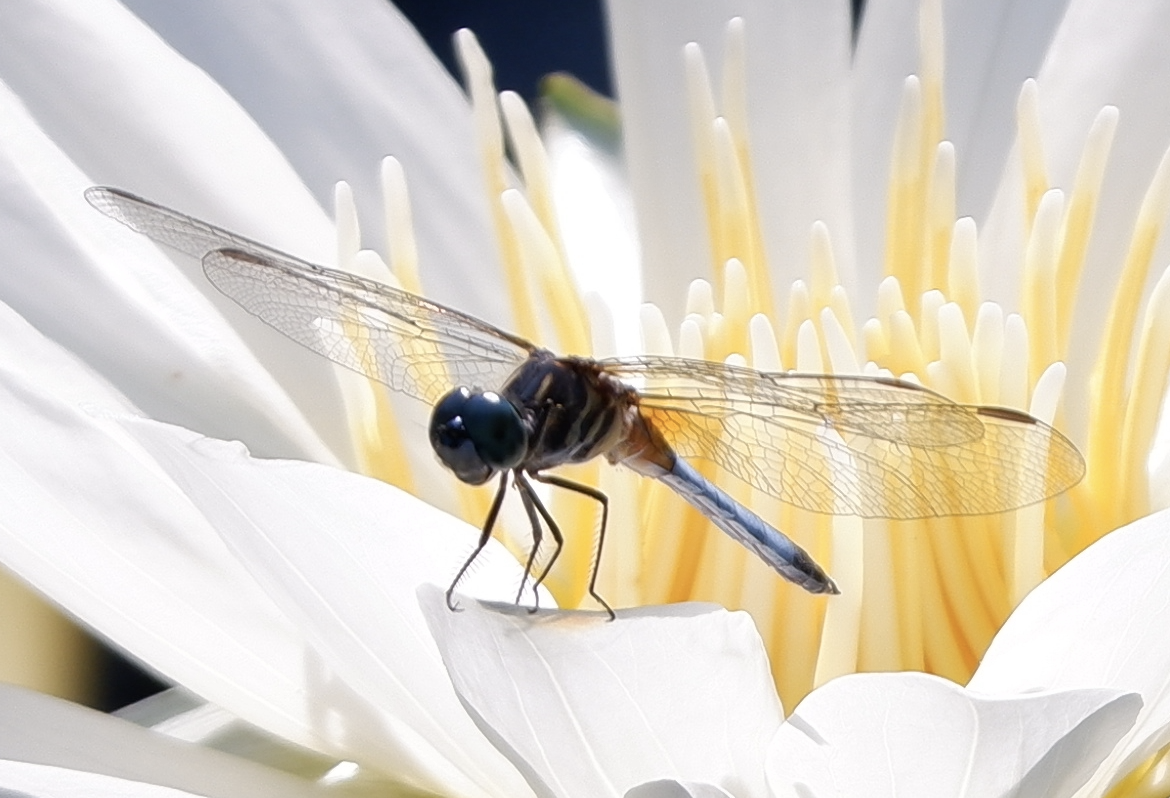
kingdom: Animalia
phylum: Arthropoda
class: Insecta
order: Odonata
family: Libellulidae
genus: Pachydiplax
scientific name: Pachydiplax longipennis
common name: Blue dasher
